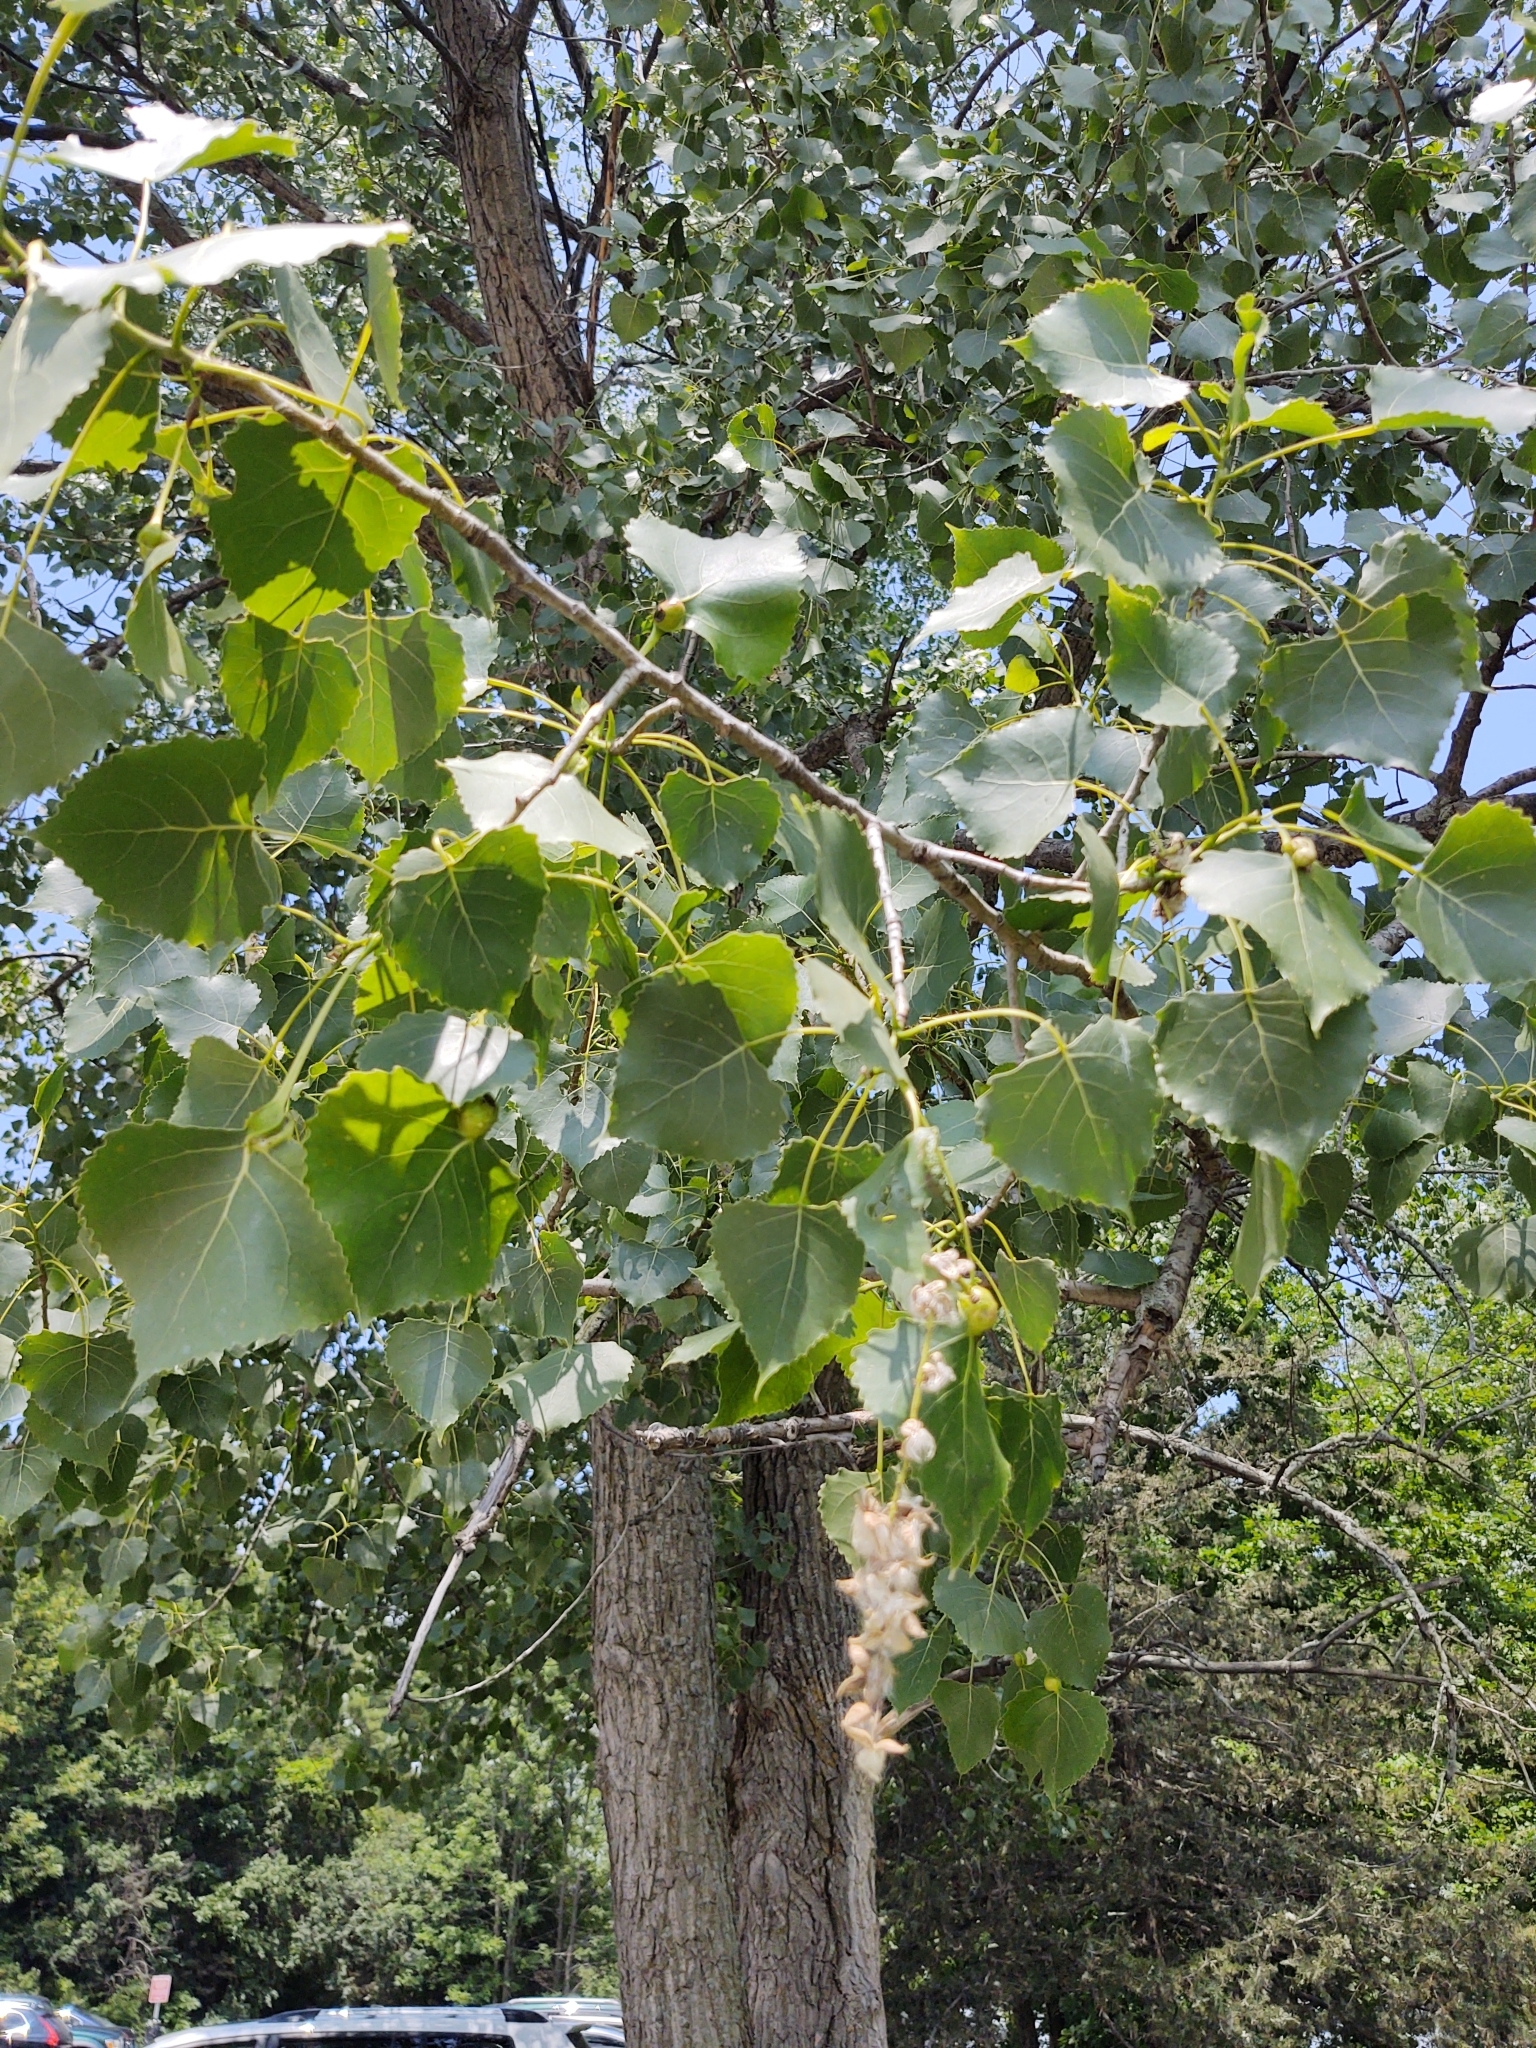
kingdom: Plantae
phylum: Tracheophyta
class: Magnoliopsida
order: Malpighiales
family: Salicaceae
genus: Populus
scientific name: Populus deltoides
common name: Eastern cottonwood
